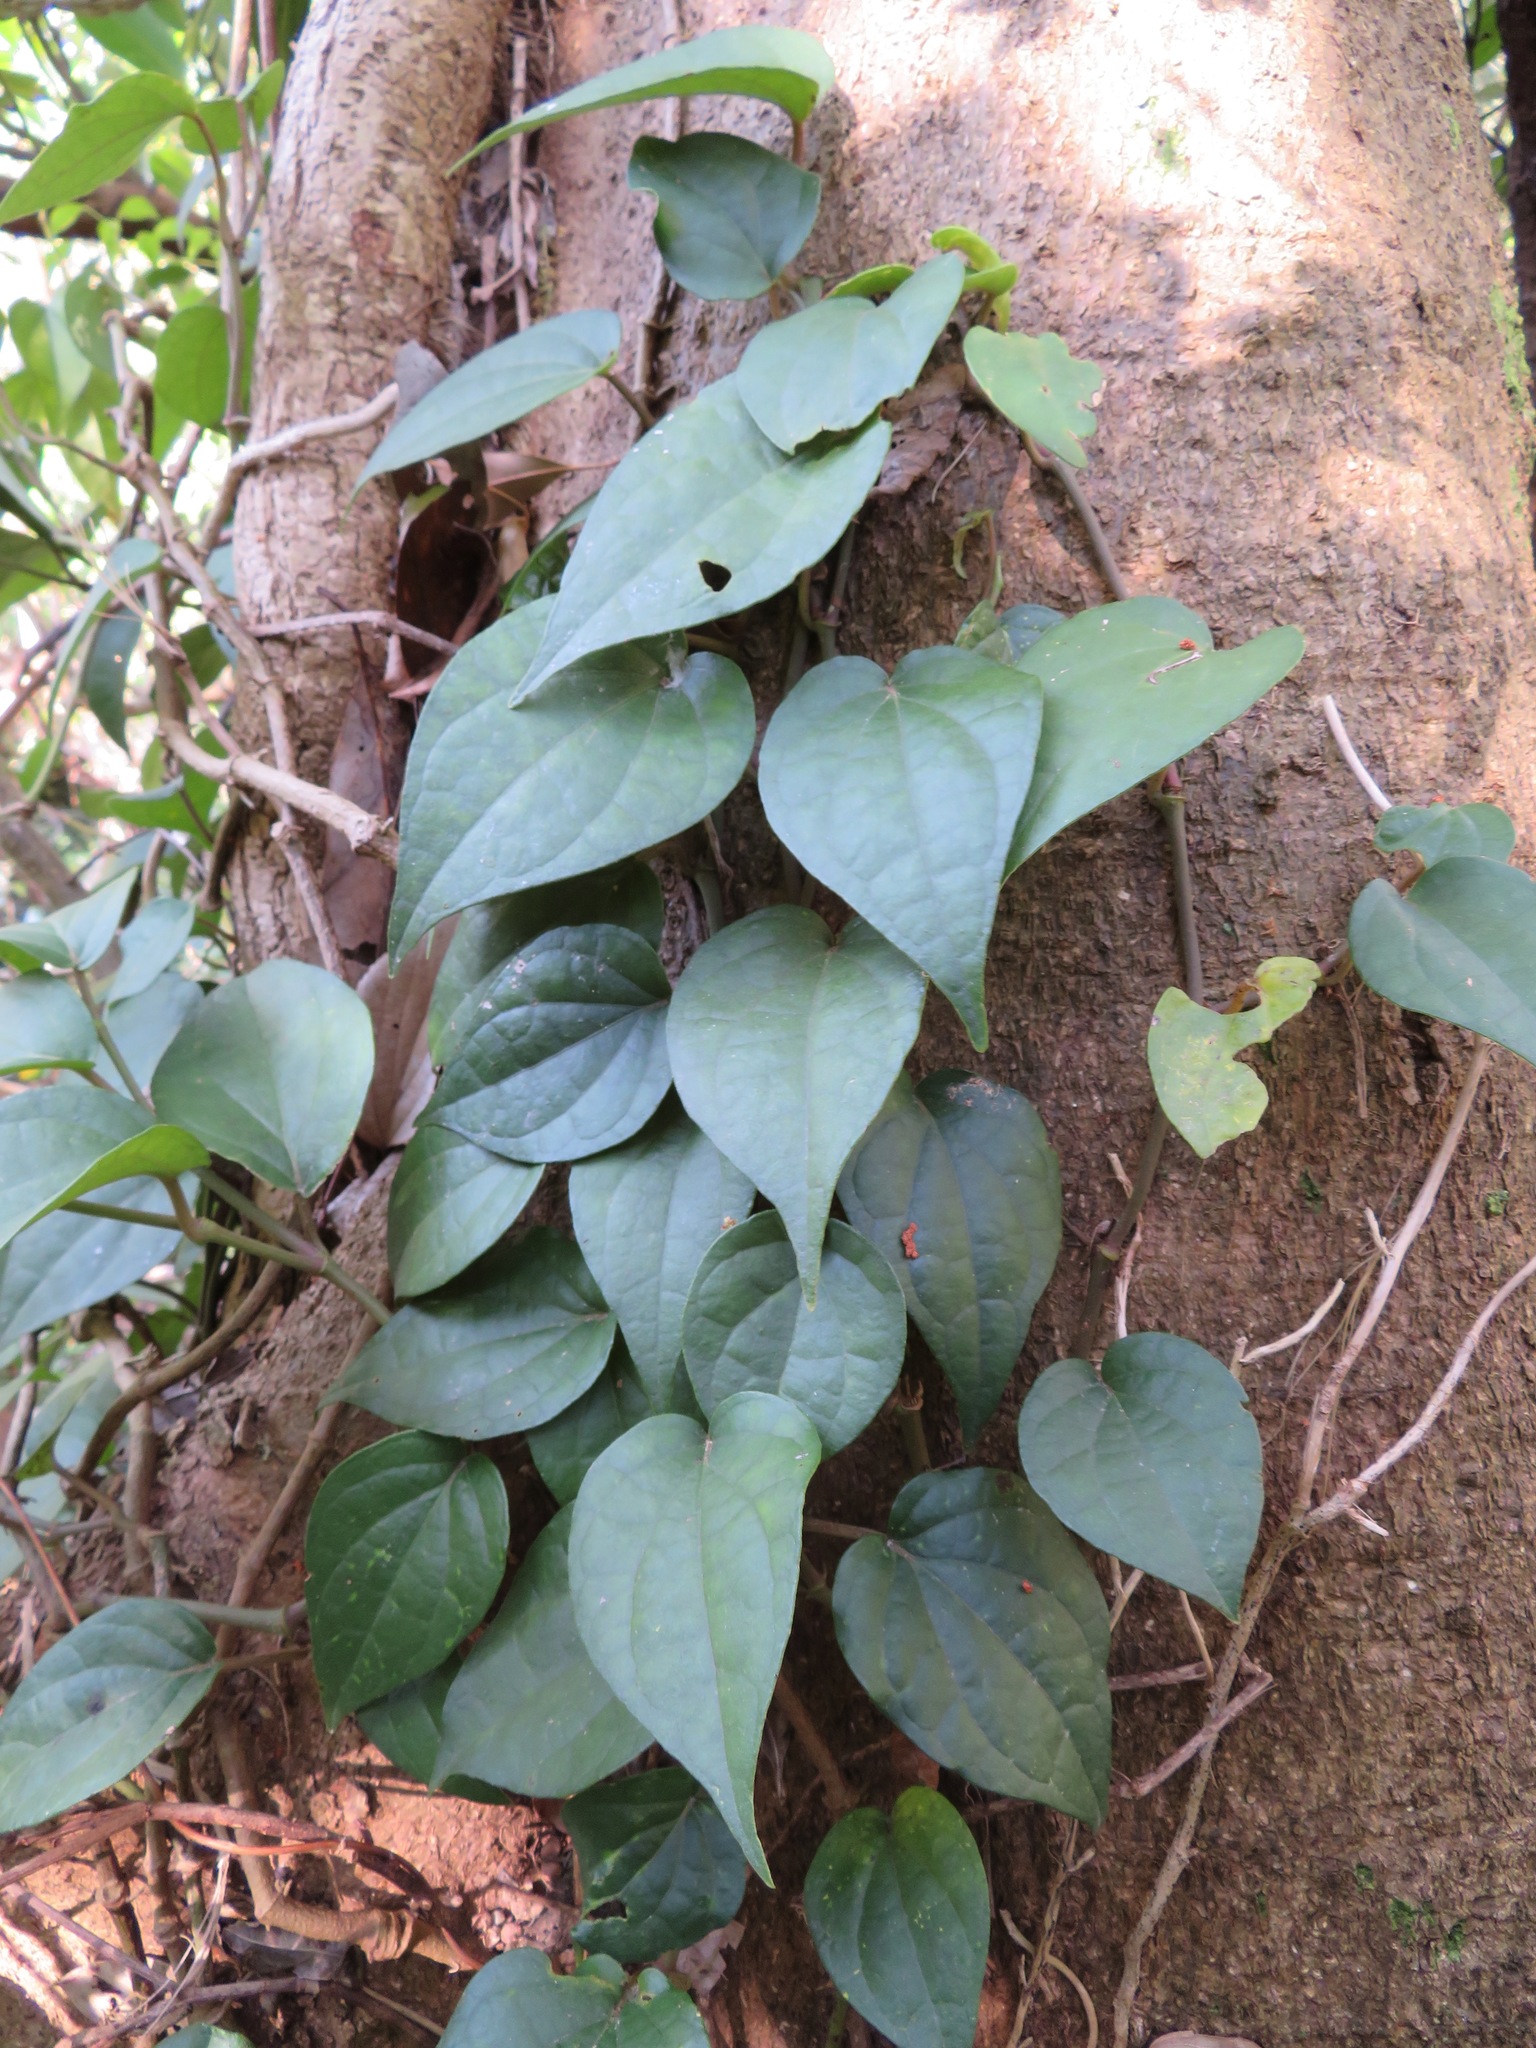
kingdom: Plantae
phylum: Tracheophyta
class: Magnoliopsida
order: Piperales
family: Piperaceae
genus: Piper
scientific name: Piper kadsura
